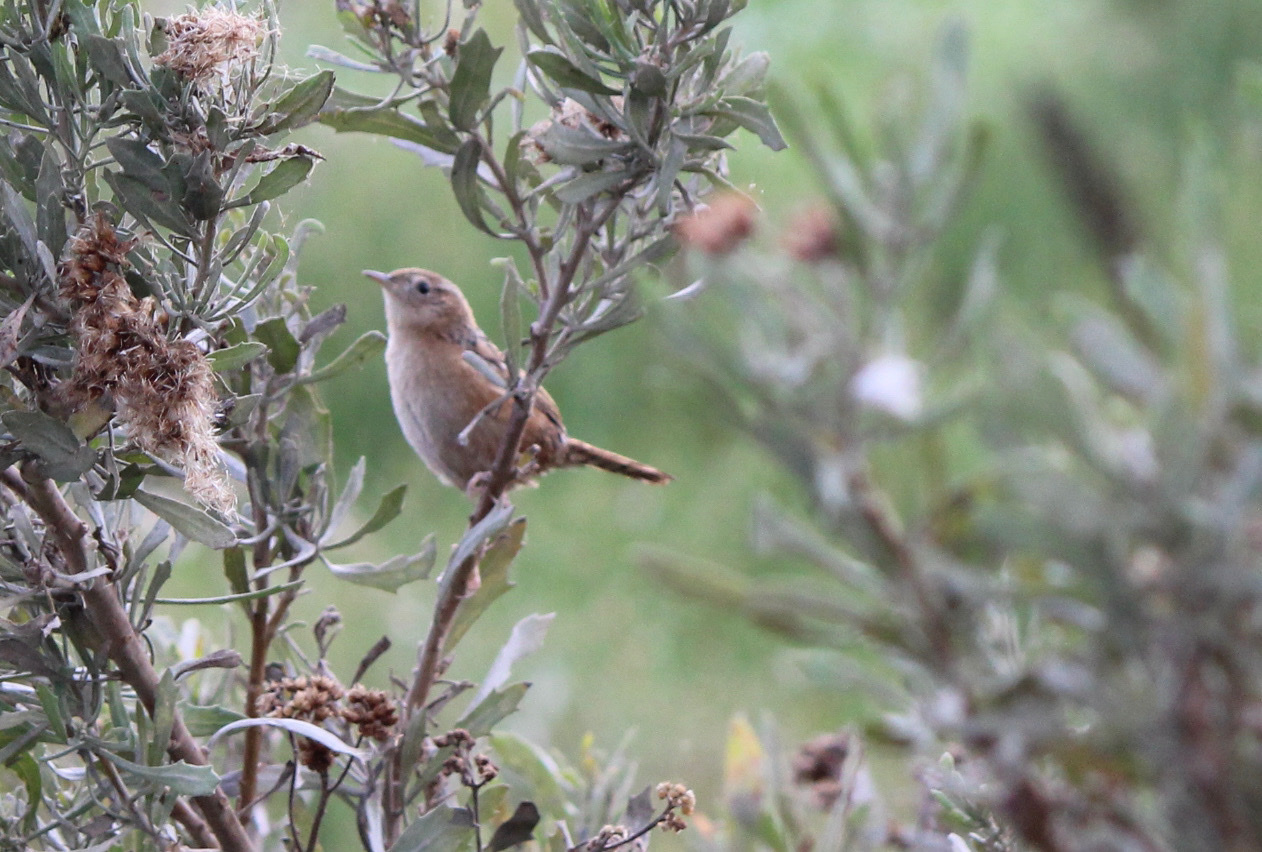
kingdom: Animalia
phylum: Chordata
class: Aves
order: Passeriformes
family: Troglodytidae
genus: Cistothorus
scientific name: Cistothorus platensis
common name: Sedge wren
